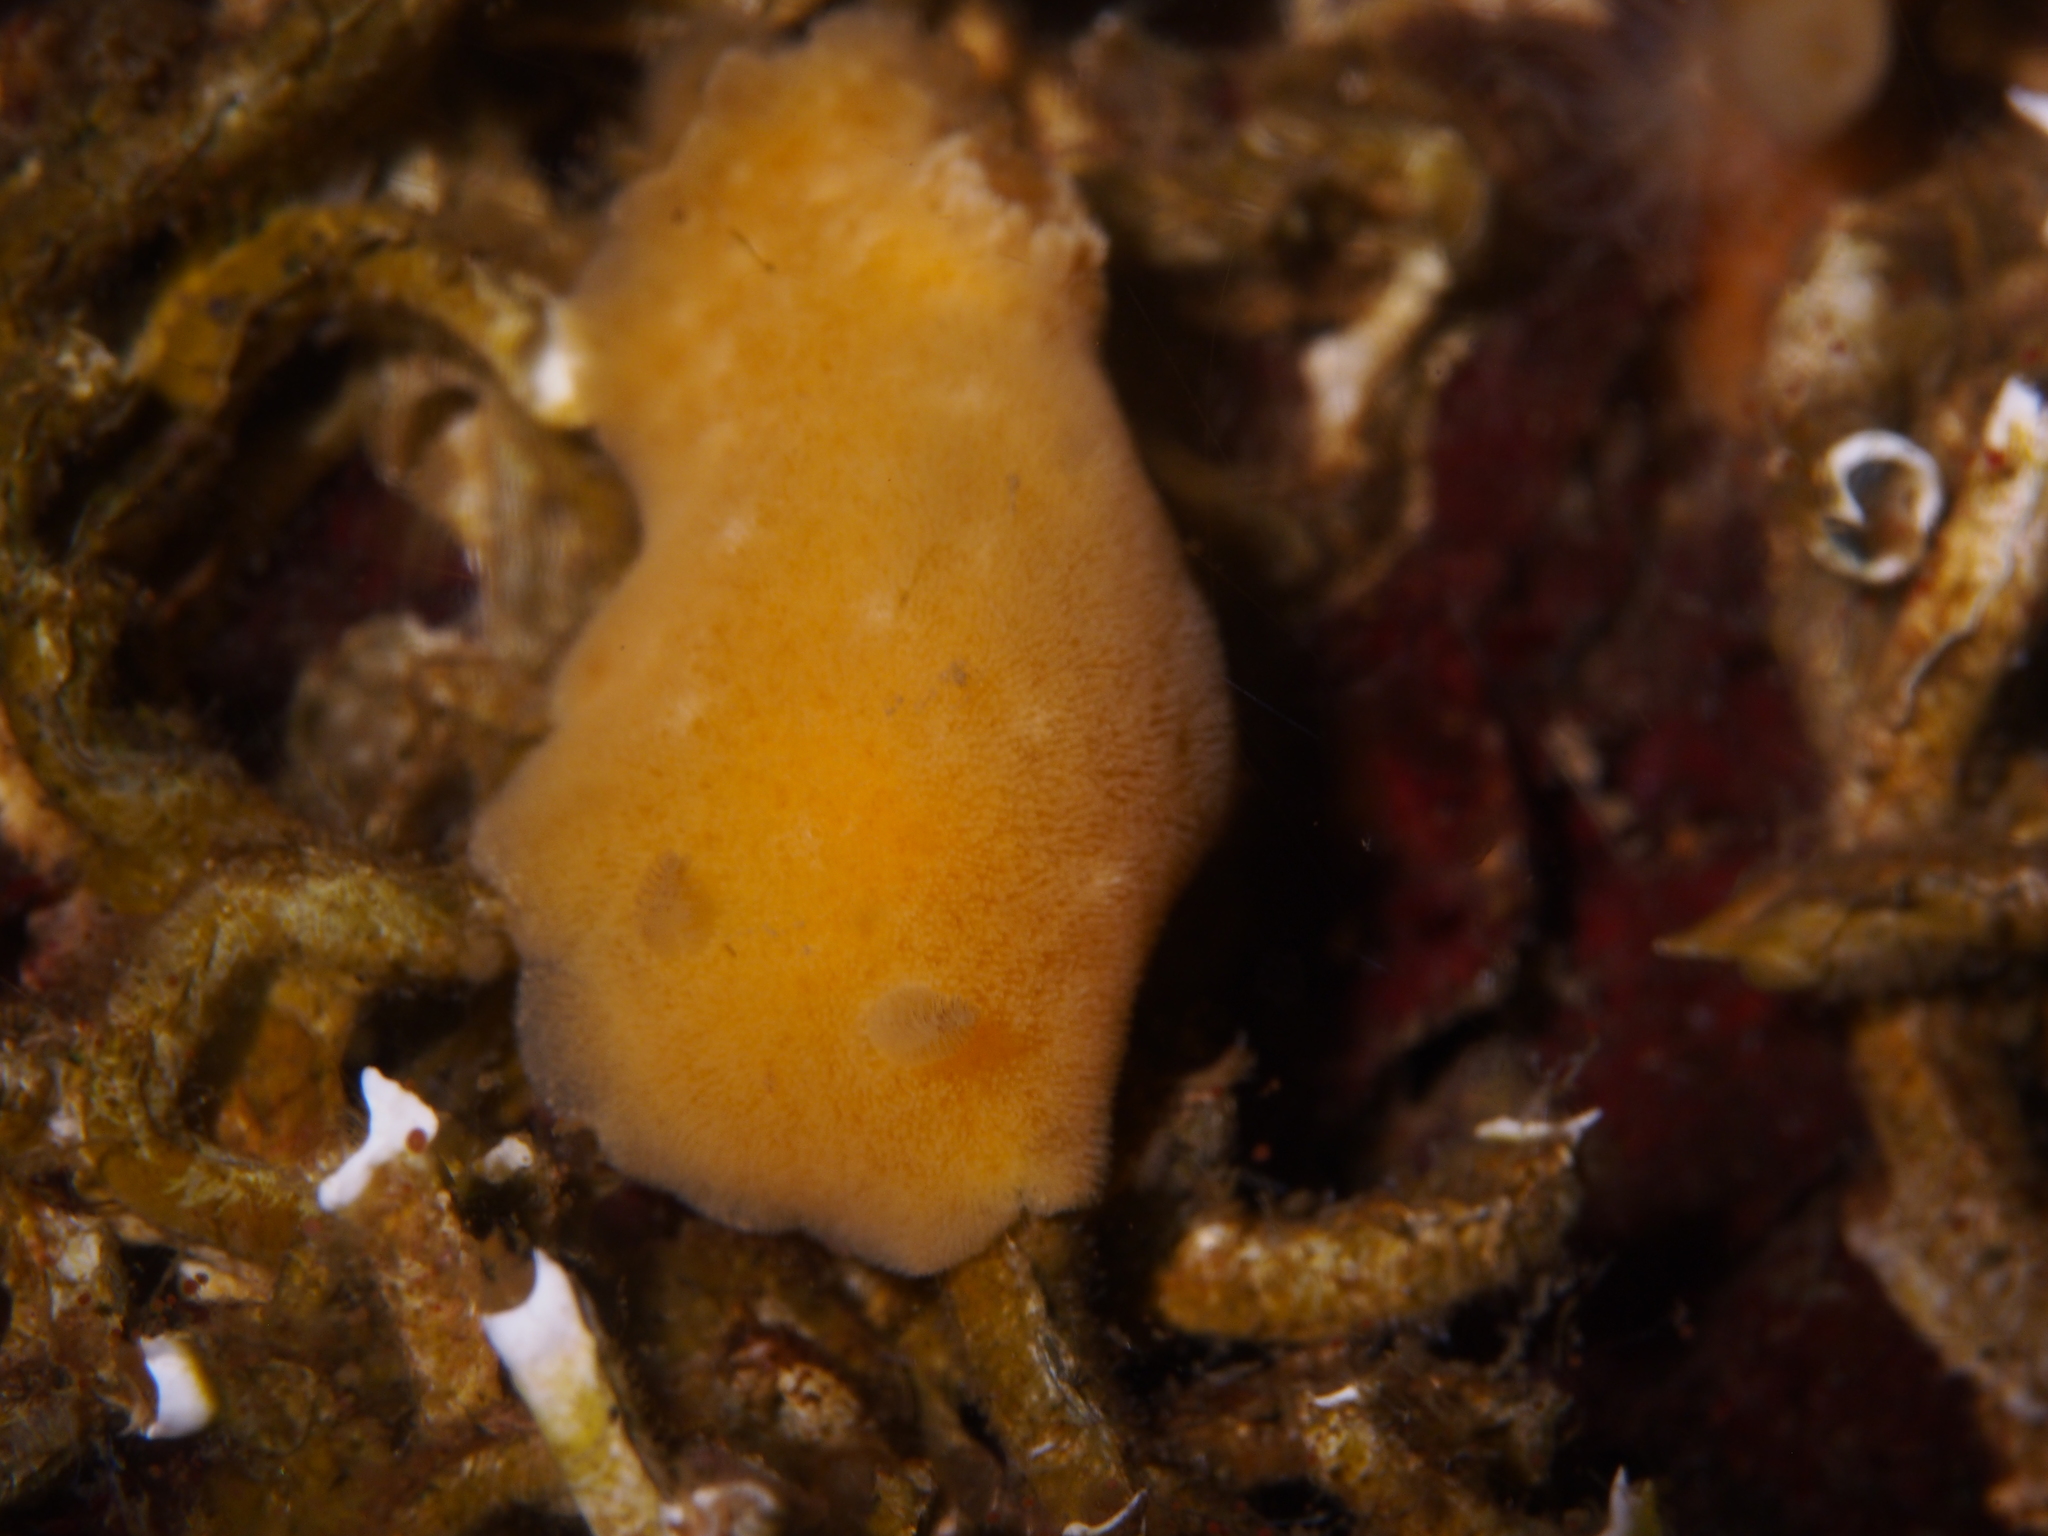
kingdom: Animalia
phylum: Mollusca
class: Gastropoda
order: Nudibranchia
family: Discodorididae
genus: Jorunna
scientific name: Jorunna tomentosa
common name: Grey sea slug
